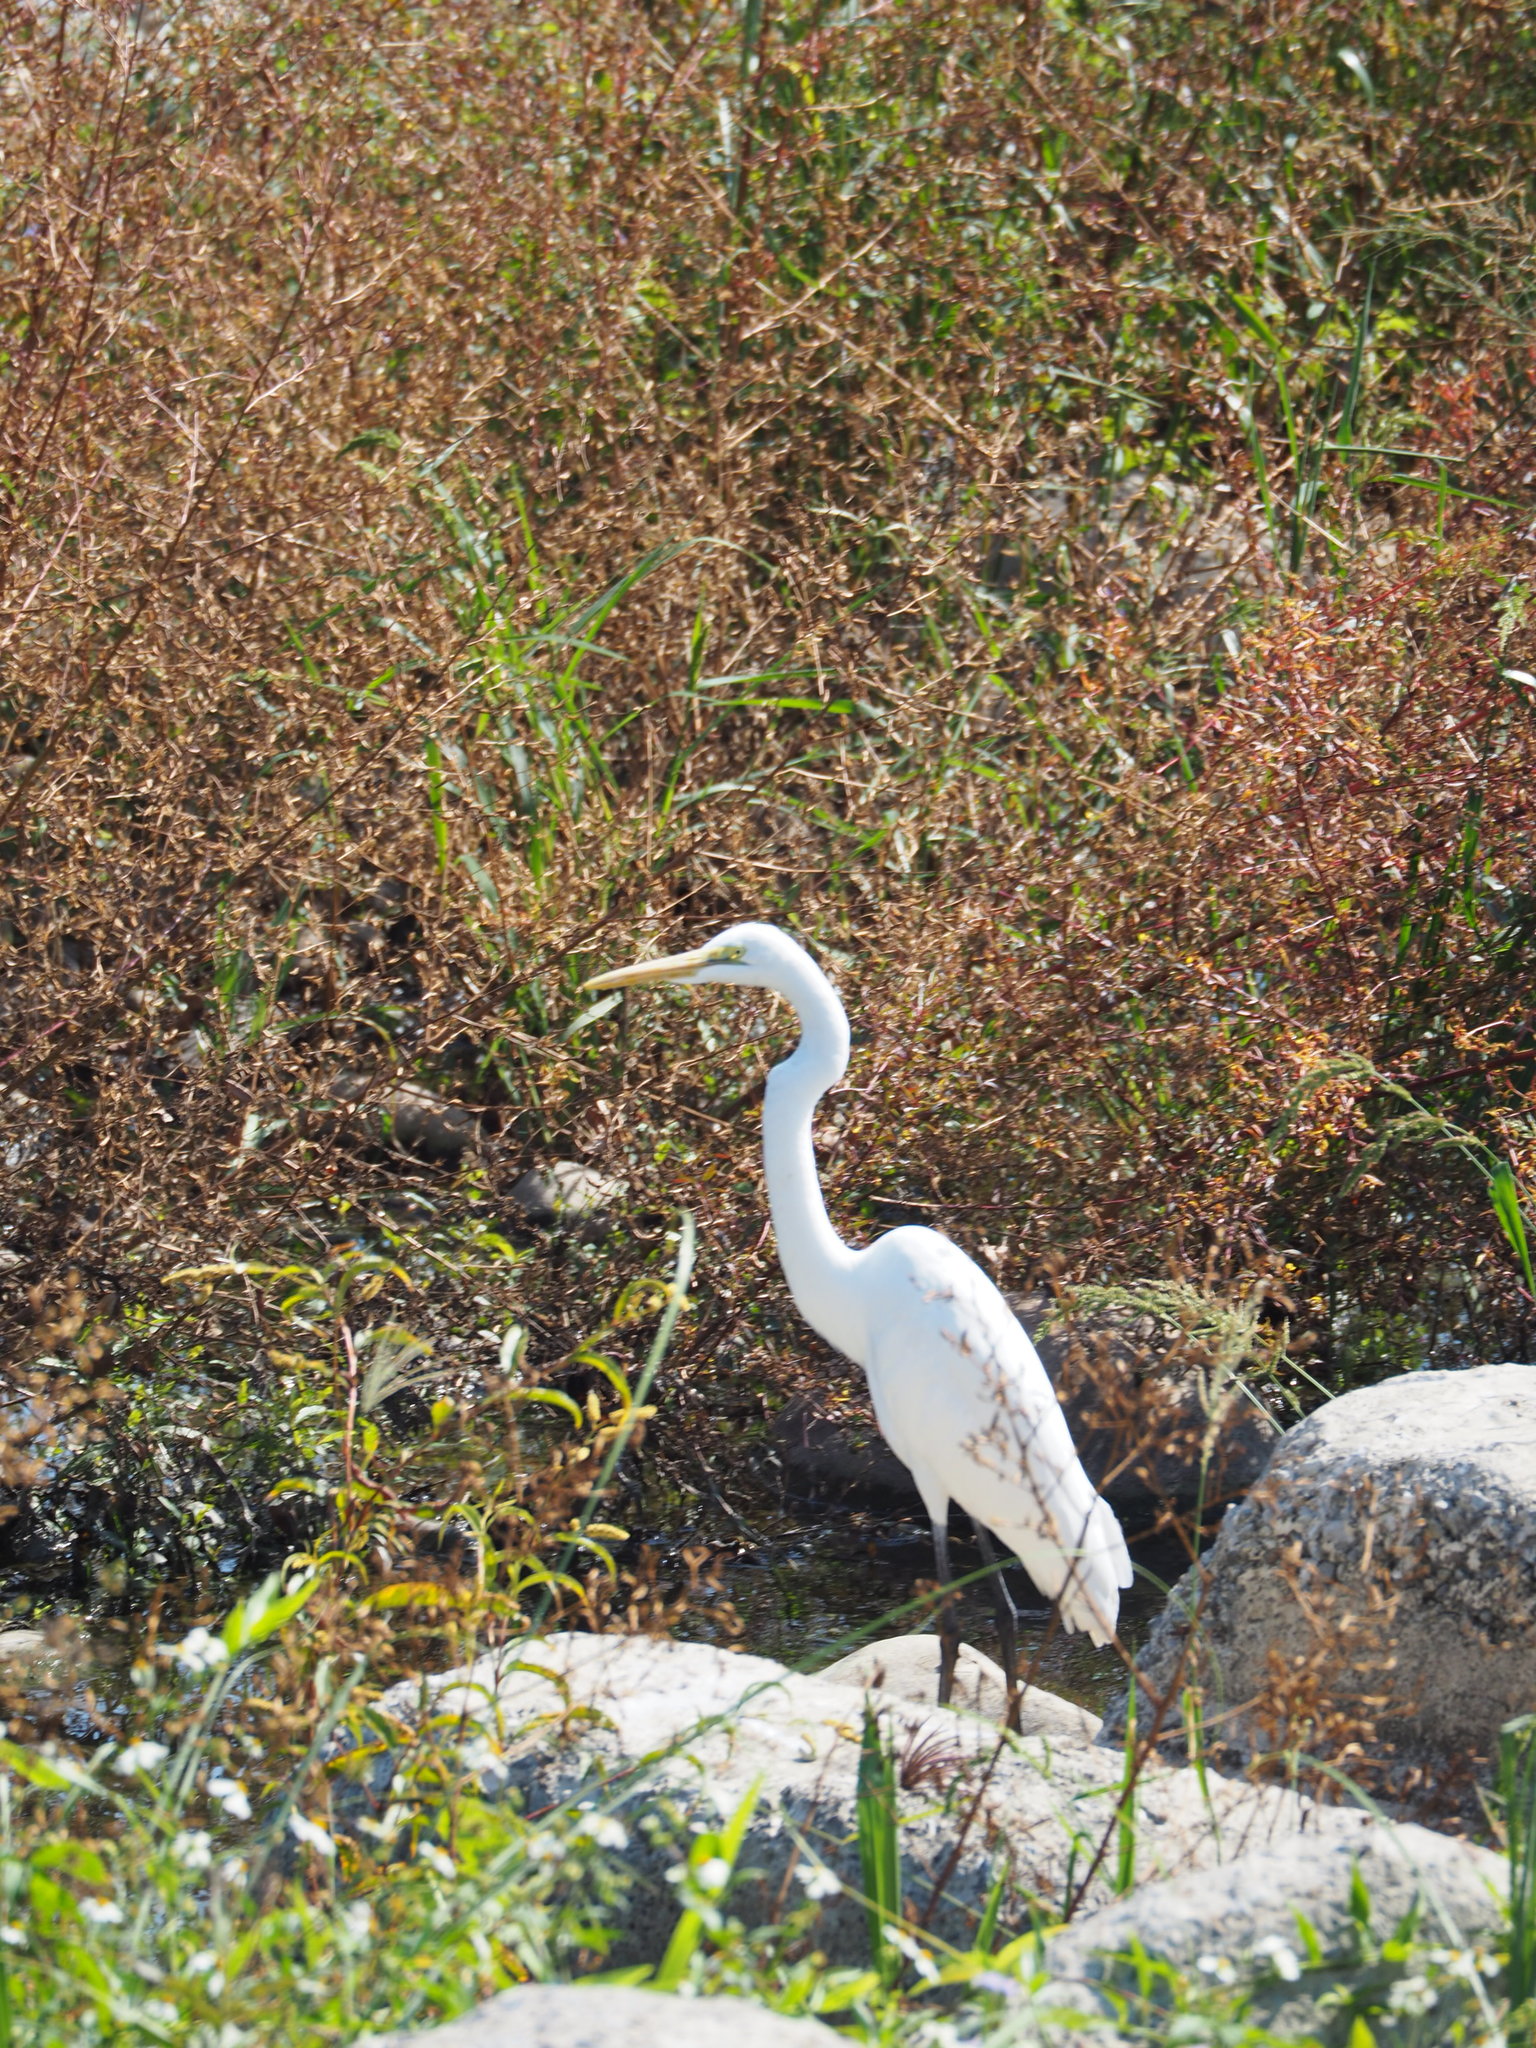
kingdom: Animalia
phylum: Chordata
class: Aves
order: Pelecaniformes
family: Ardeidae
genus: Ardea
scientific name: Ardea alba
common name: Great egret
